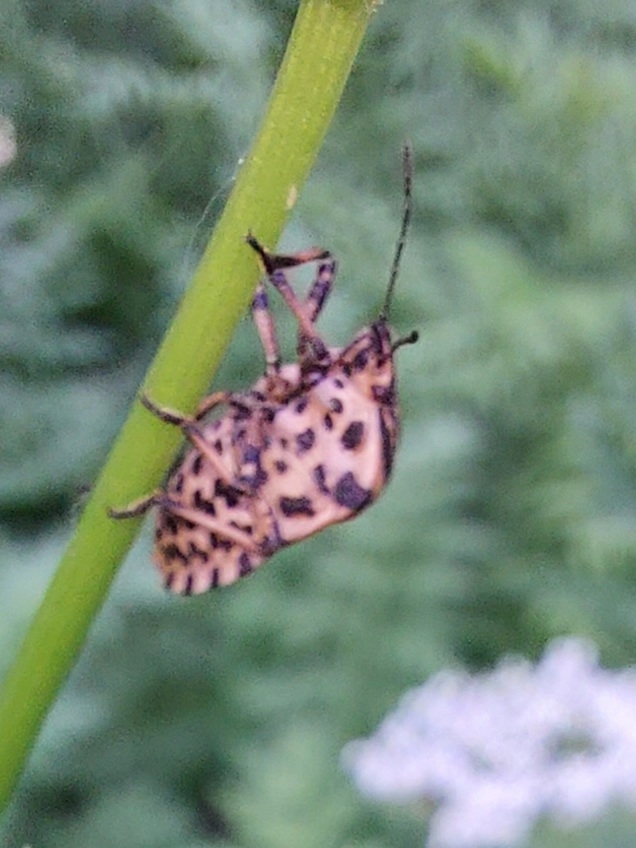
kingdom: Animalia
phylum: Arthropoda
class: Insecta
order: Hemiptera
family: Pentatomidae
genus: Graphosoma
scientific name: Graphosoma italicum
